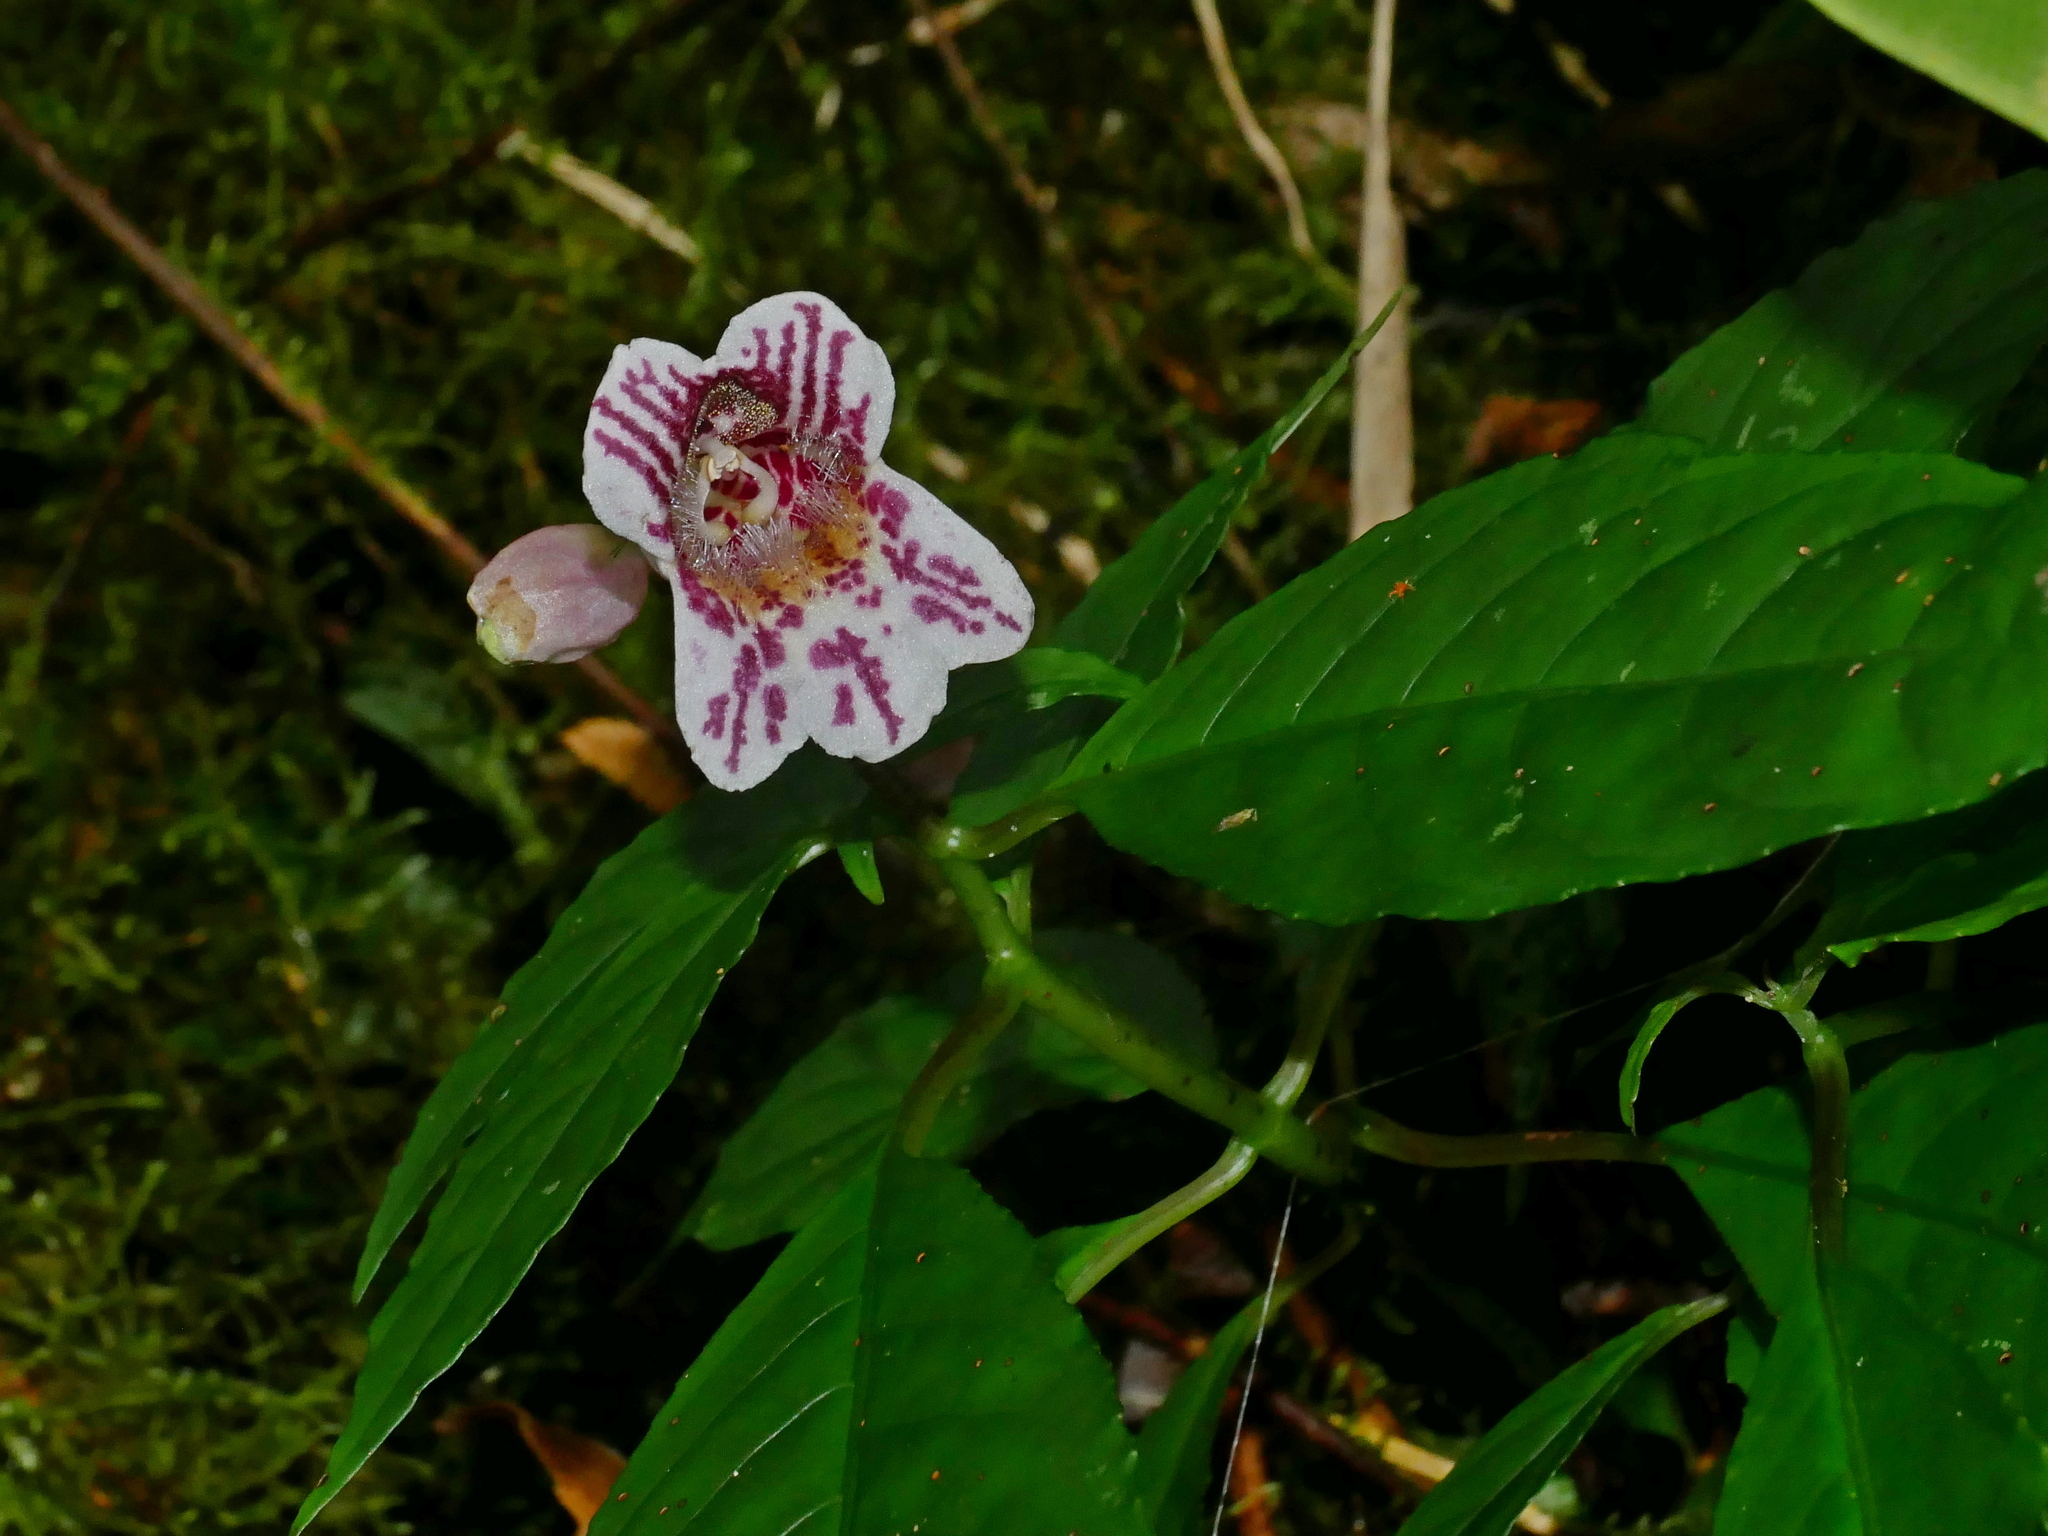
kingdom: Plantae
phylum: Tracheophyta
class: Magnoliopsida
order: Lamiales
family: Gesneriaceae
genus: Hemiboea
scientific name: Hemiboea bicornuta
